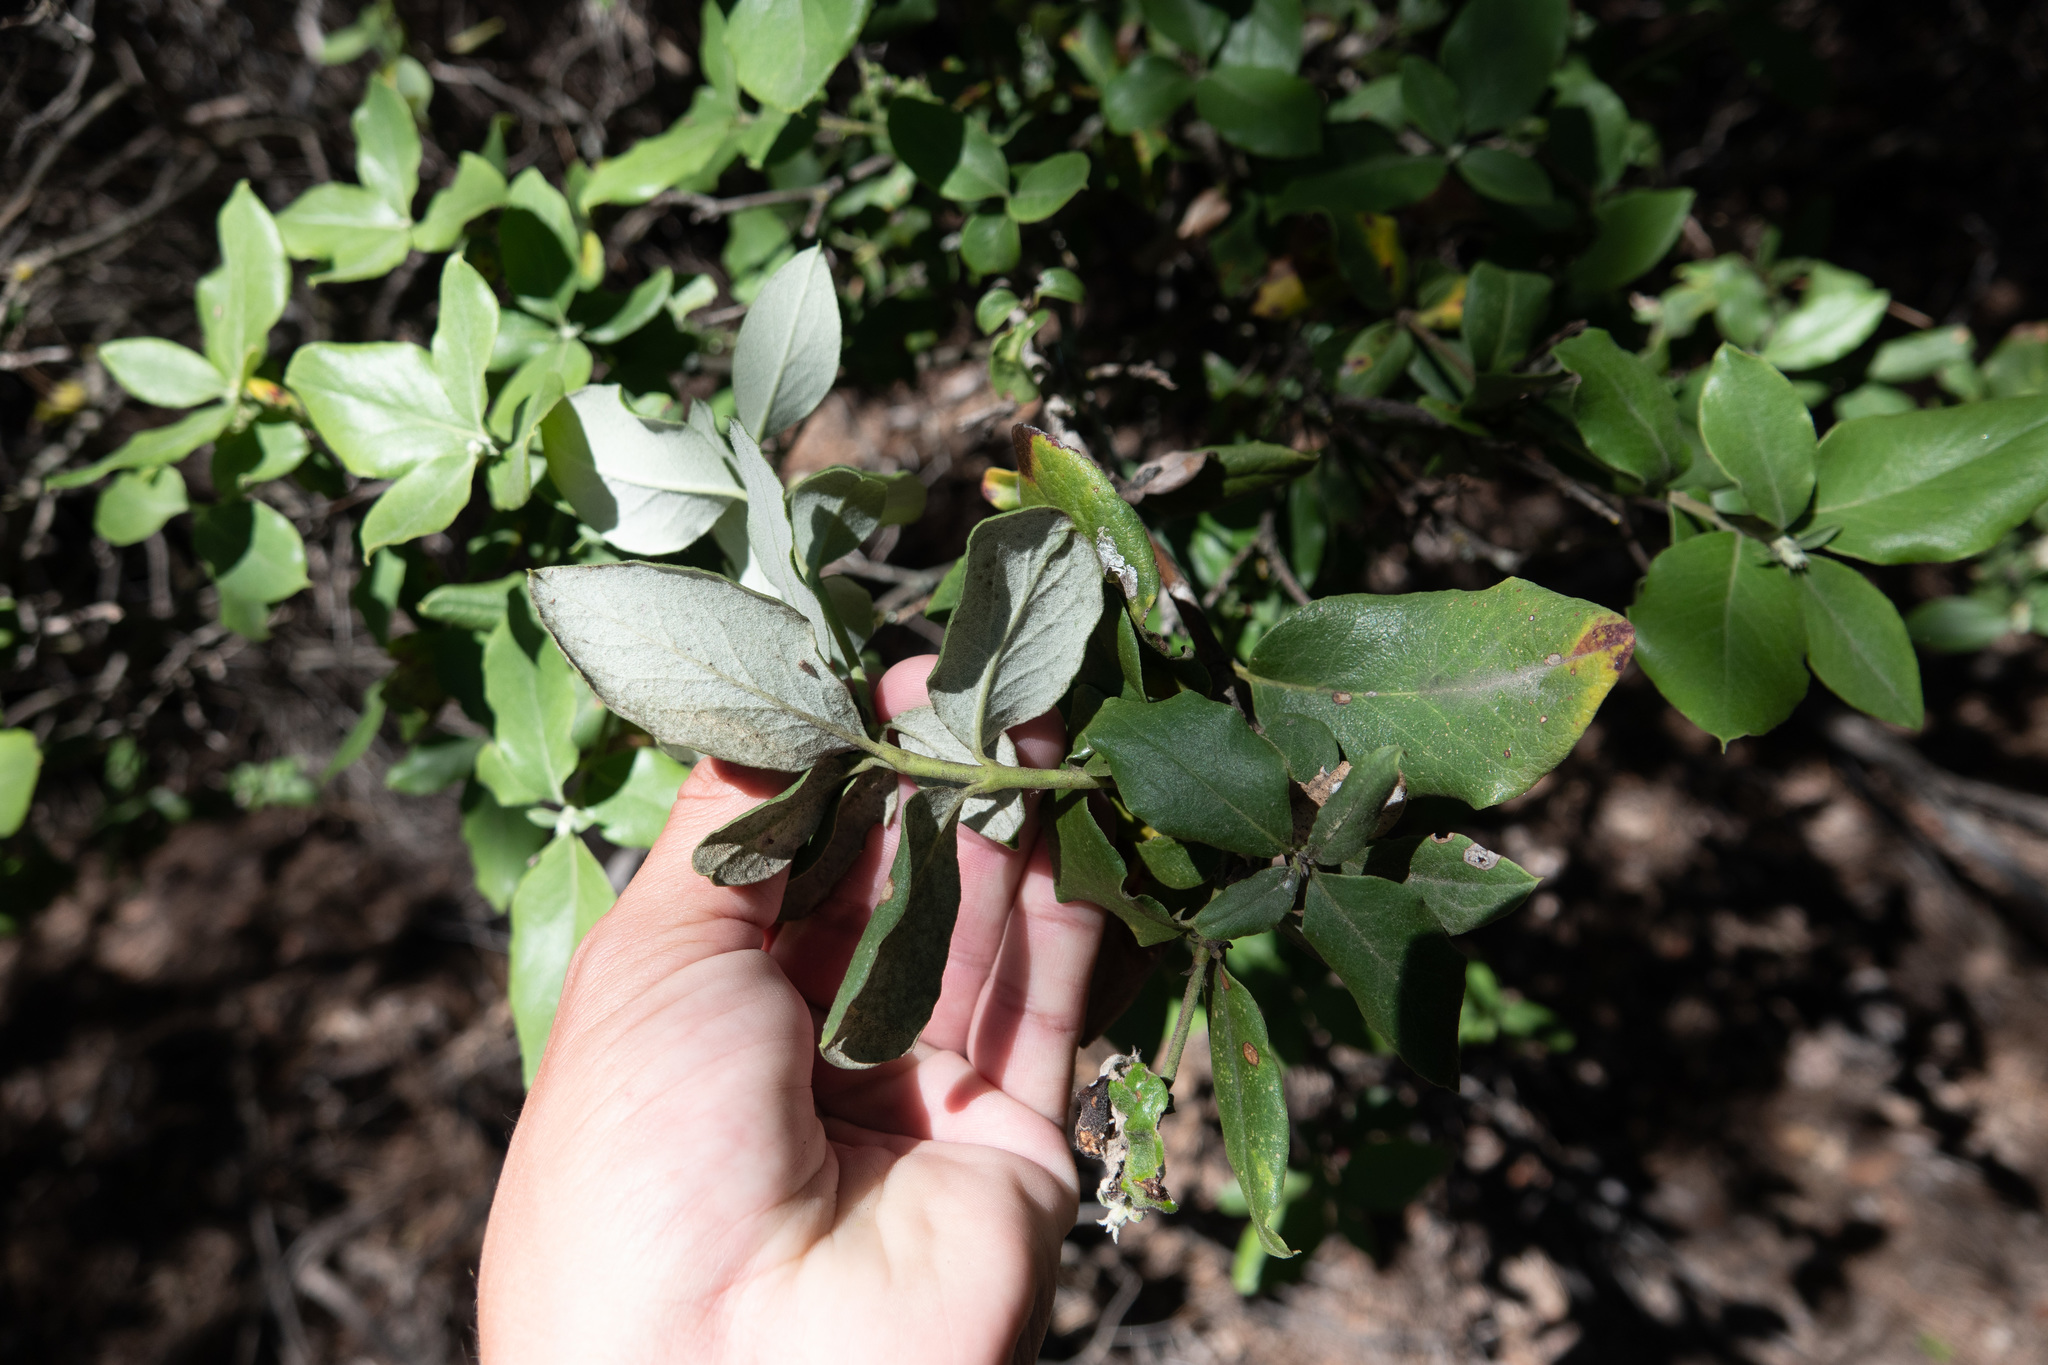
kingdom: Plantae
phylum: Tracheophyta
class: Magnoliopsida
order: Garryales
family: Garryaceae
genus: Garrya
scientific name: Garrya elliptica
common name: Silk-tassel
